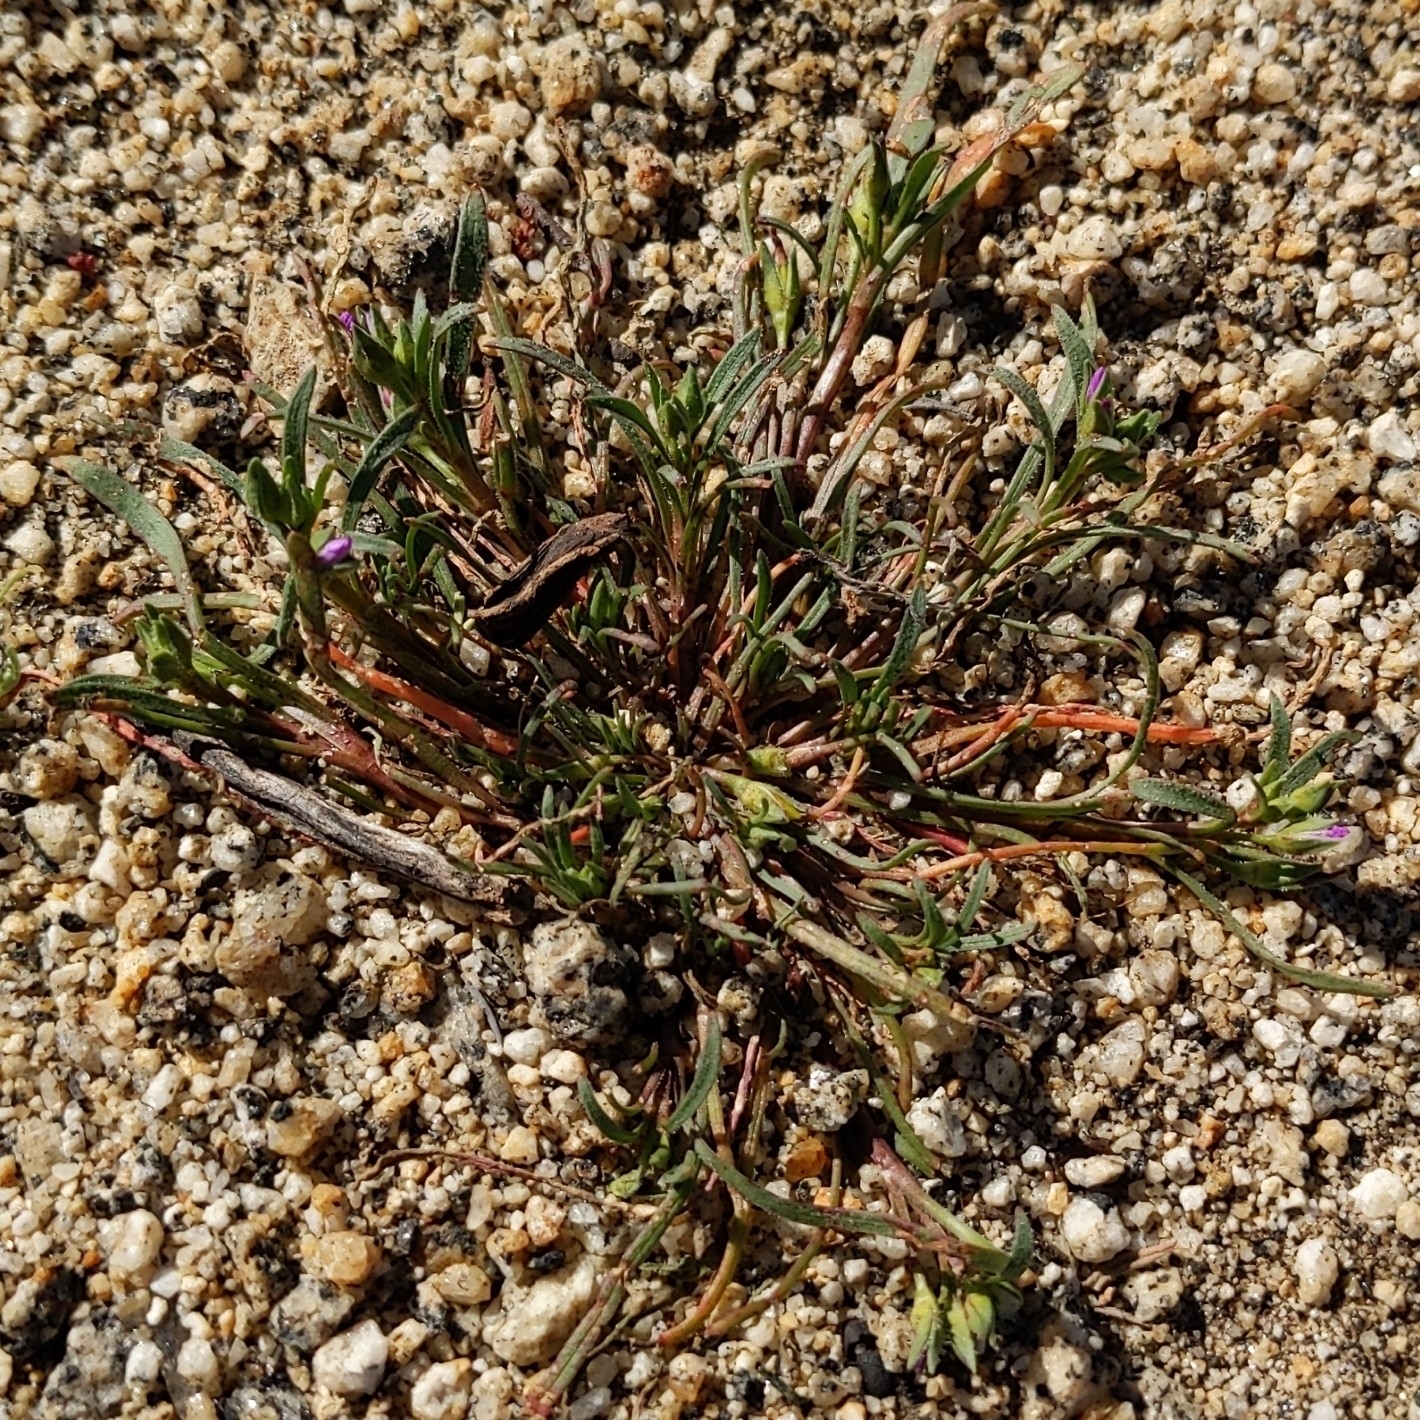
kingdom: Plantae
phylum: Tracheophyta
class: Magnoliopsida
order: Caryophyllales
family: Montiaceae
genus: Calandrinia
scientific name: Calandrinia menziesii
